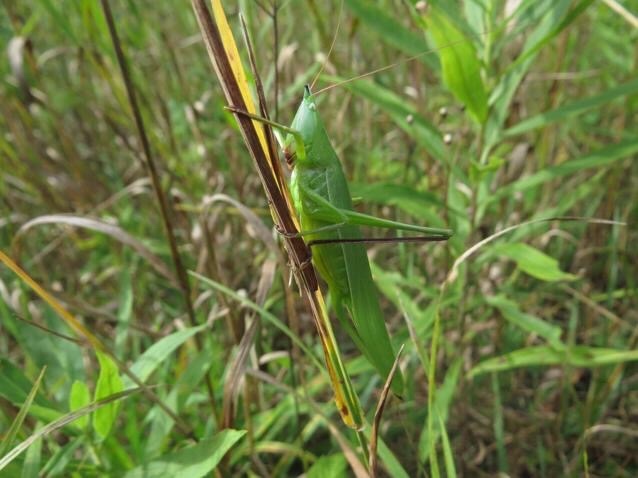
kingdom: Animalia
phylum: Arthropoda
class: Insecta
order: Orthoptera
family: Tettigoniidae
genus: Neoconocephalus
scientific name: Neoconocephalus ensiger
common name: Swordbearer
